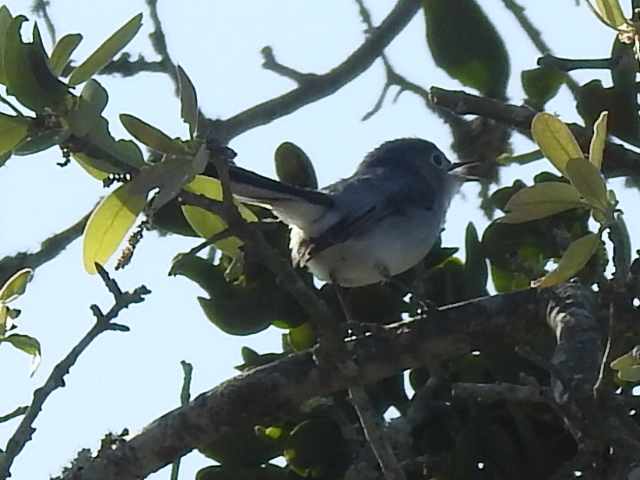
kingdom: Animalia
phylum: Chordata
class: Aves
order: Passeriformes
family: Polioptilidae
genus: Polioptila
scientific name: Polioptila caerulea
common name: Blue-gray gnatcatcher
